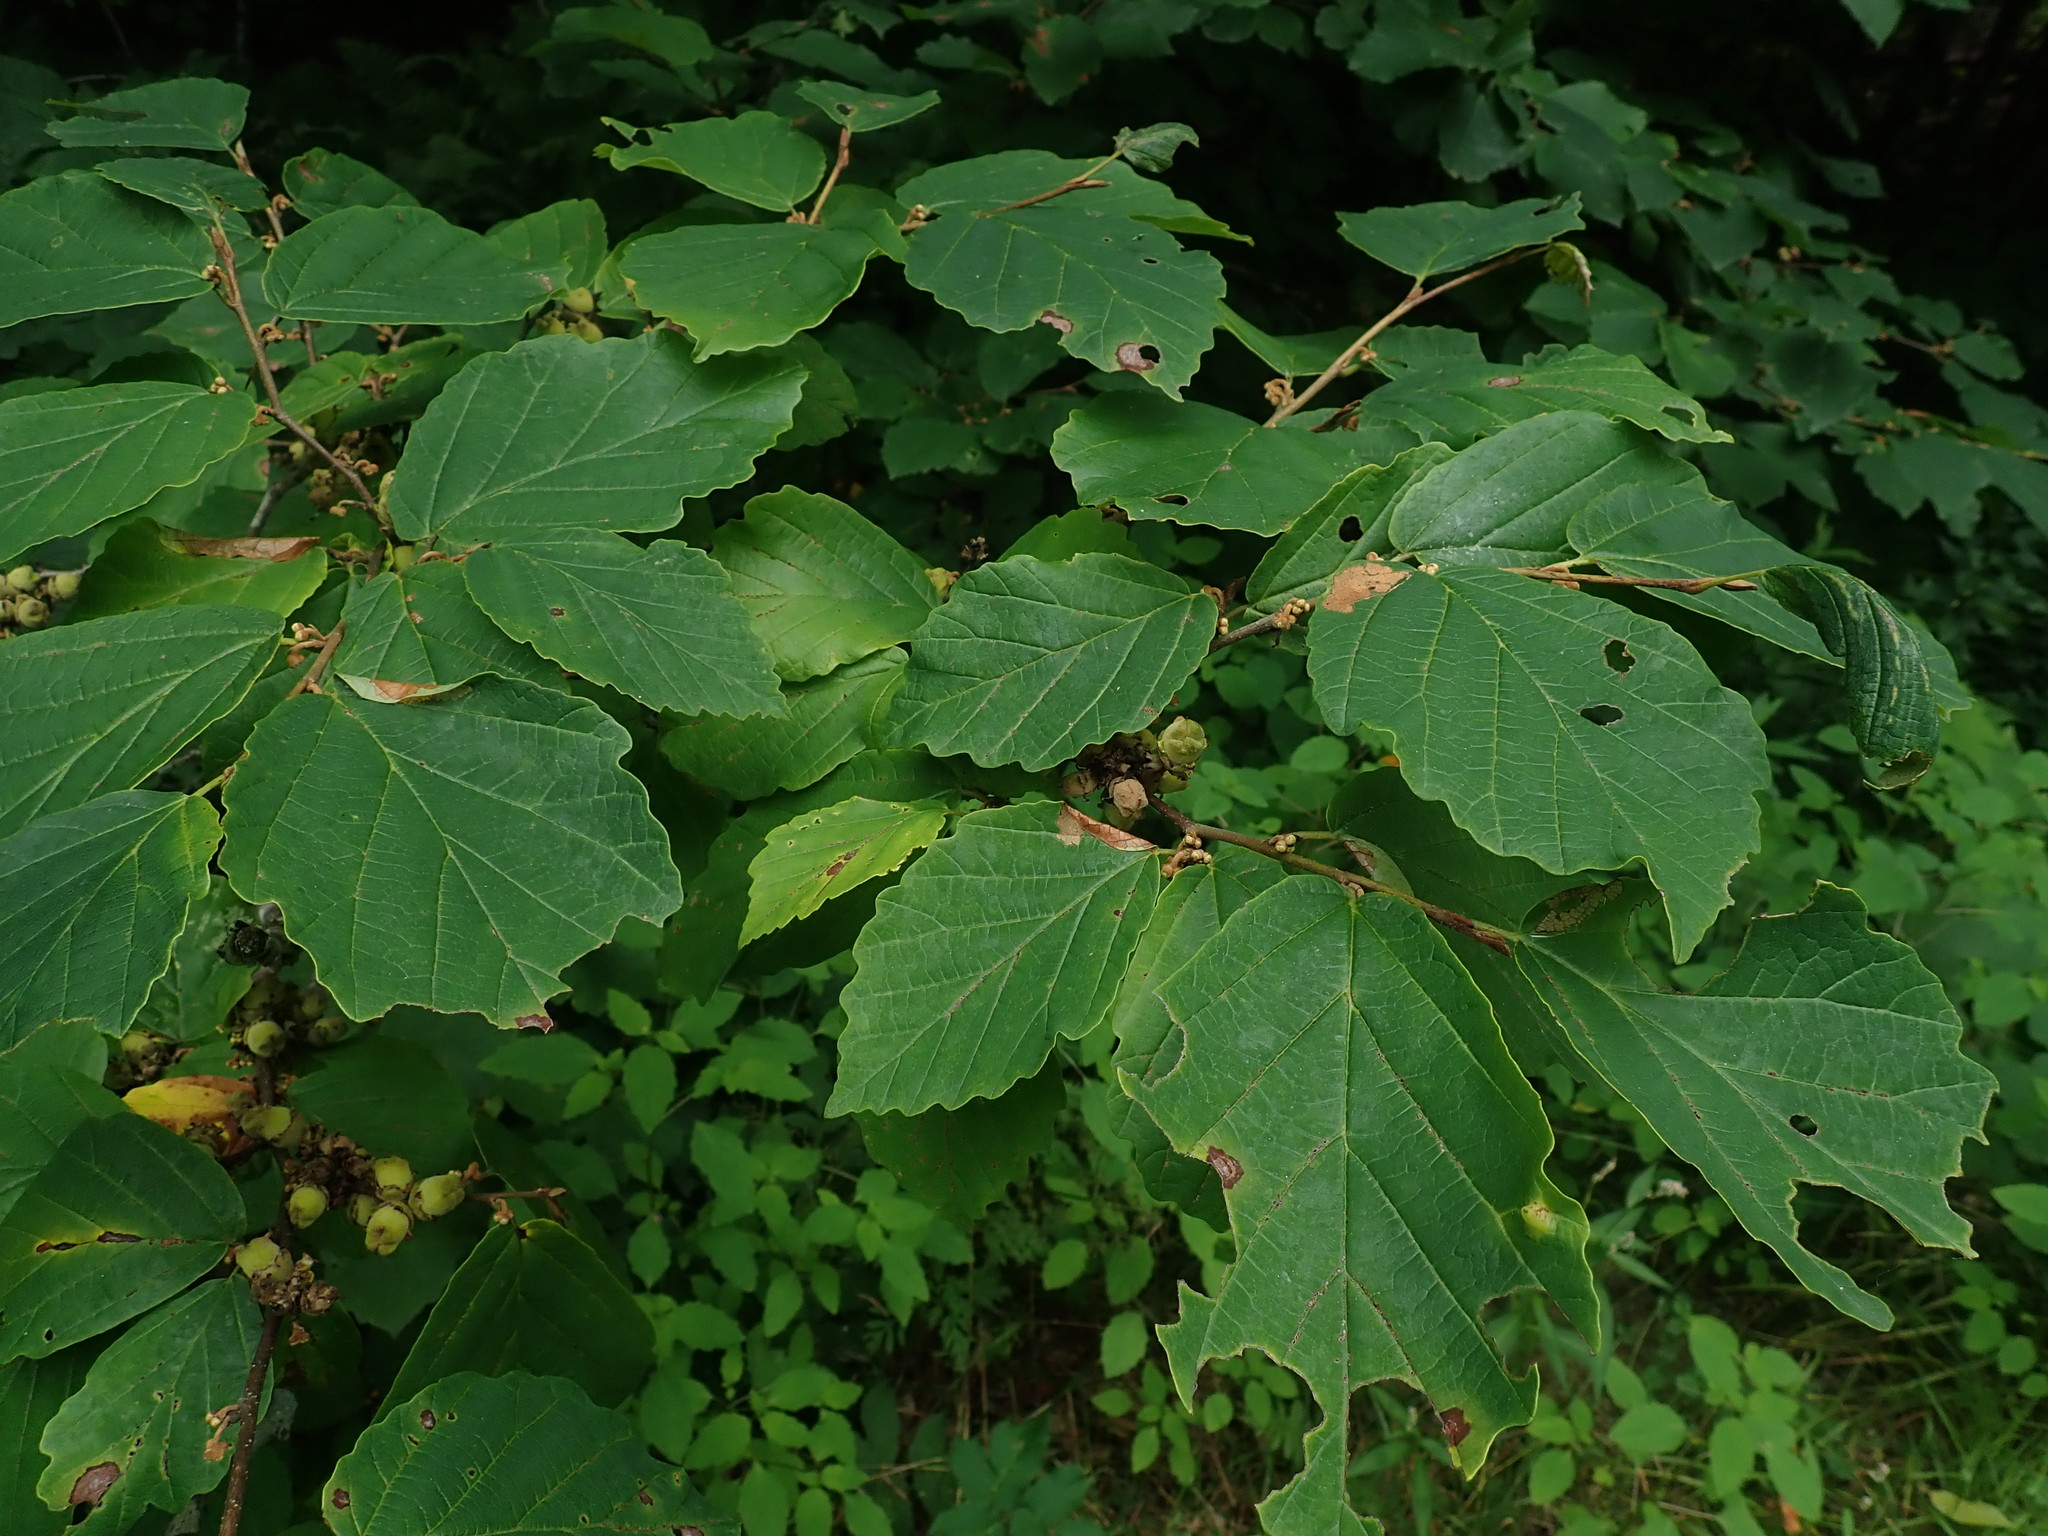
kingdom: Plantae
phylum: Tracheophyta
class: Magnoliopsida
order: Saxifragales
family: Hamamelidaceae
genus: Hamamelis
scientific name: Hamamelis virginiana
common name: Witch-hazel
